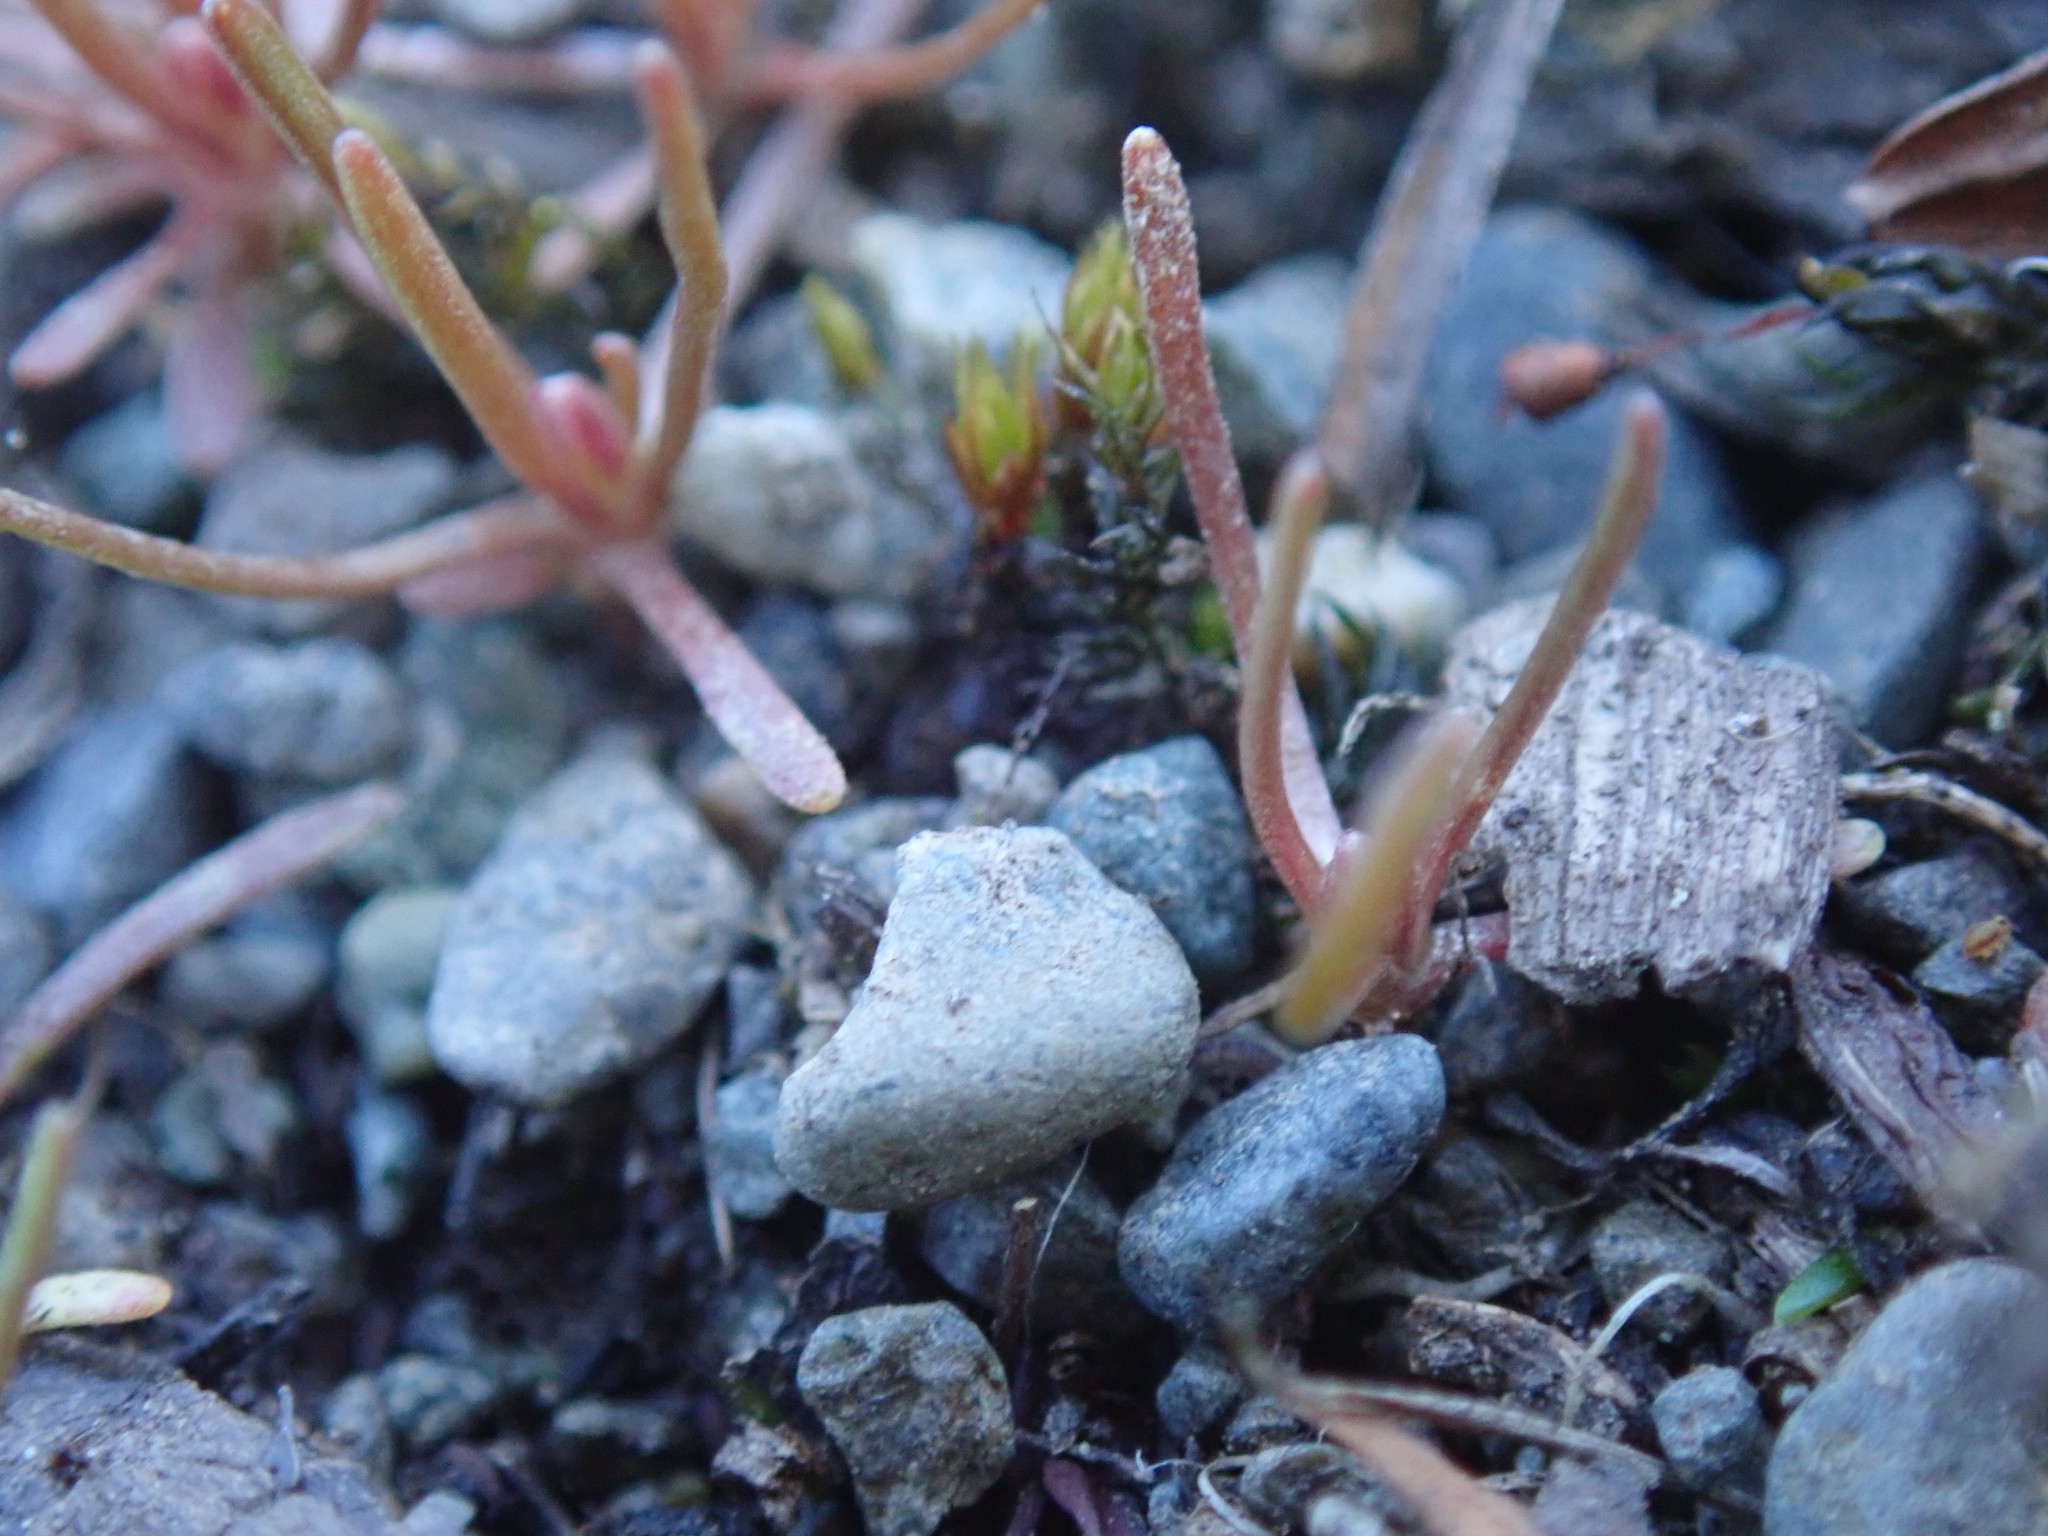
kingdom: Plantae
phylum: Tracheophyta
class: Magnoliopsida
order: Brassicales
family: Brassicaceae
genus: Draba
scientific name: Draba verna
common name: Spring draba
